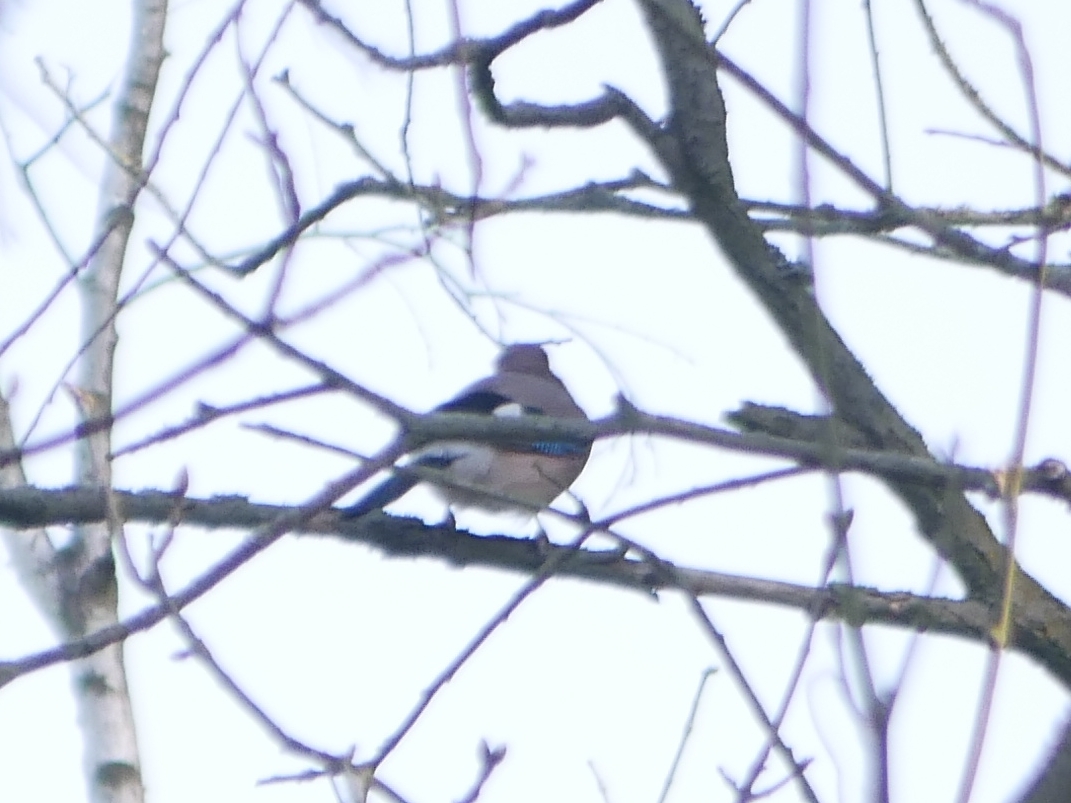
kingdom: Animalia
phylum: Chordata
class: Aves
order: Passeriformes
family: Corvidae
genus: Garrulus
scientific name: Garrulus glandarius
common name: Eurasian jay
